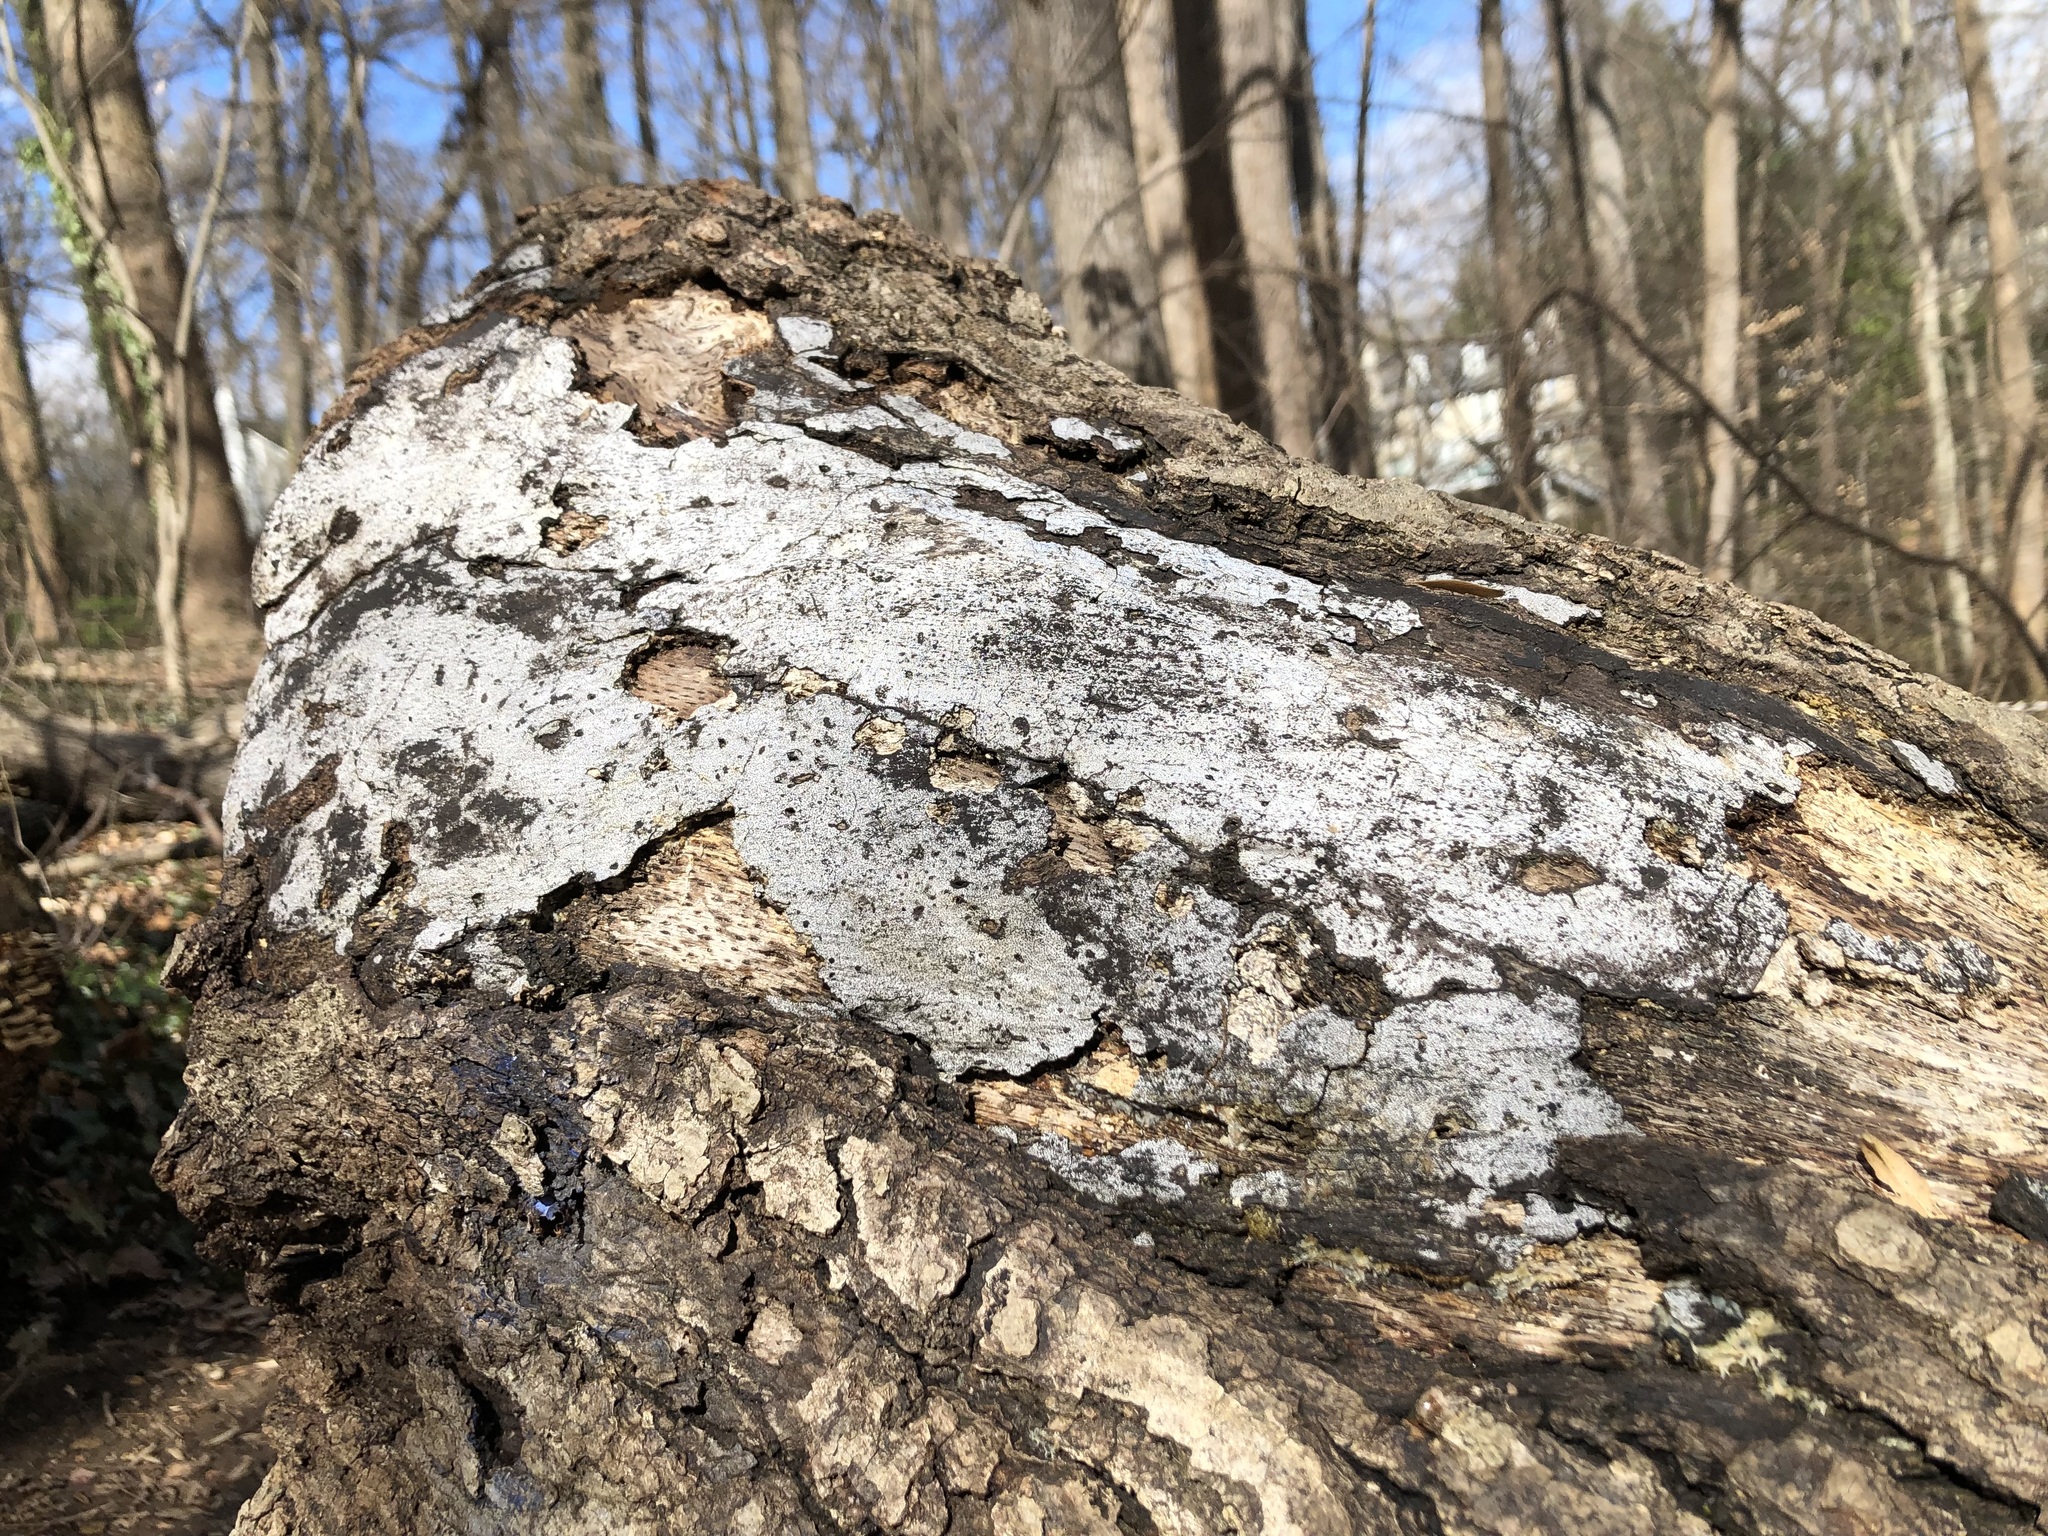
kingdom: Fungi
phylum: Ascomycota
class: Sordariomycetes
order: Xylariales
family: Graphostromataceae
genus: Biscogniauxia
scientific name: Biscogniauxia atropunctata
